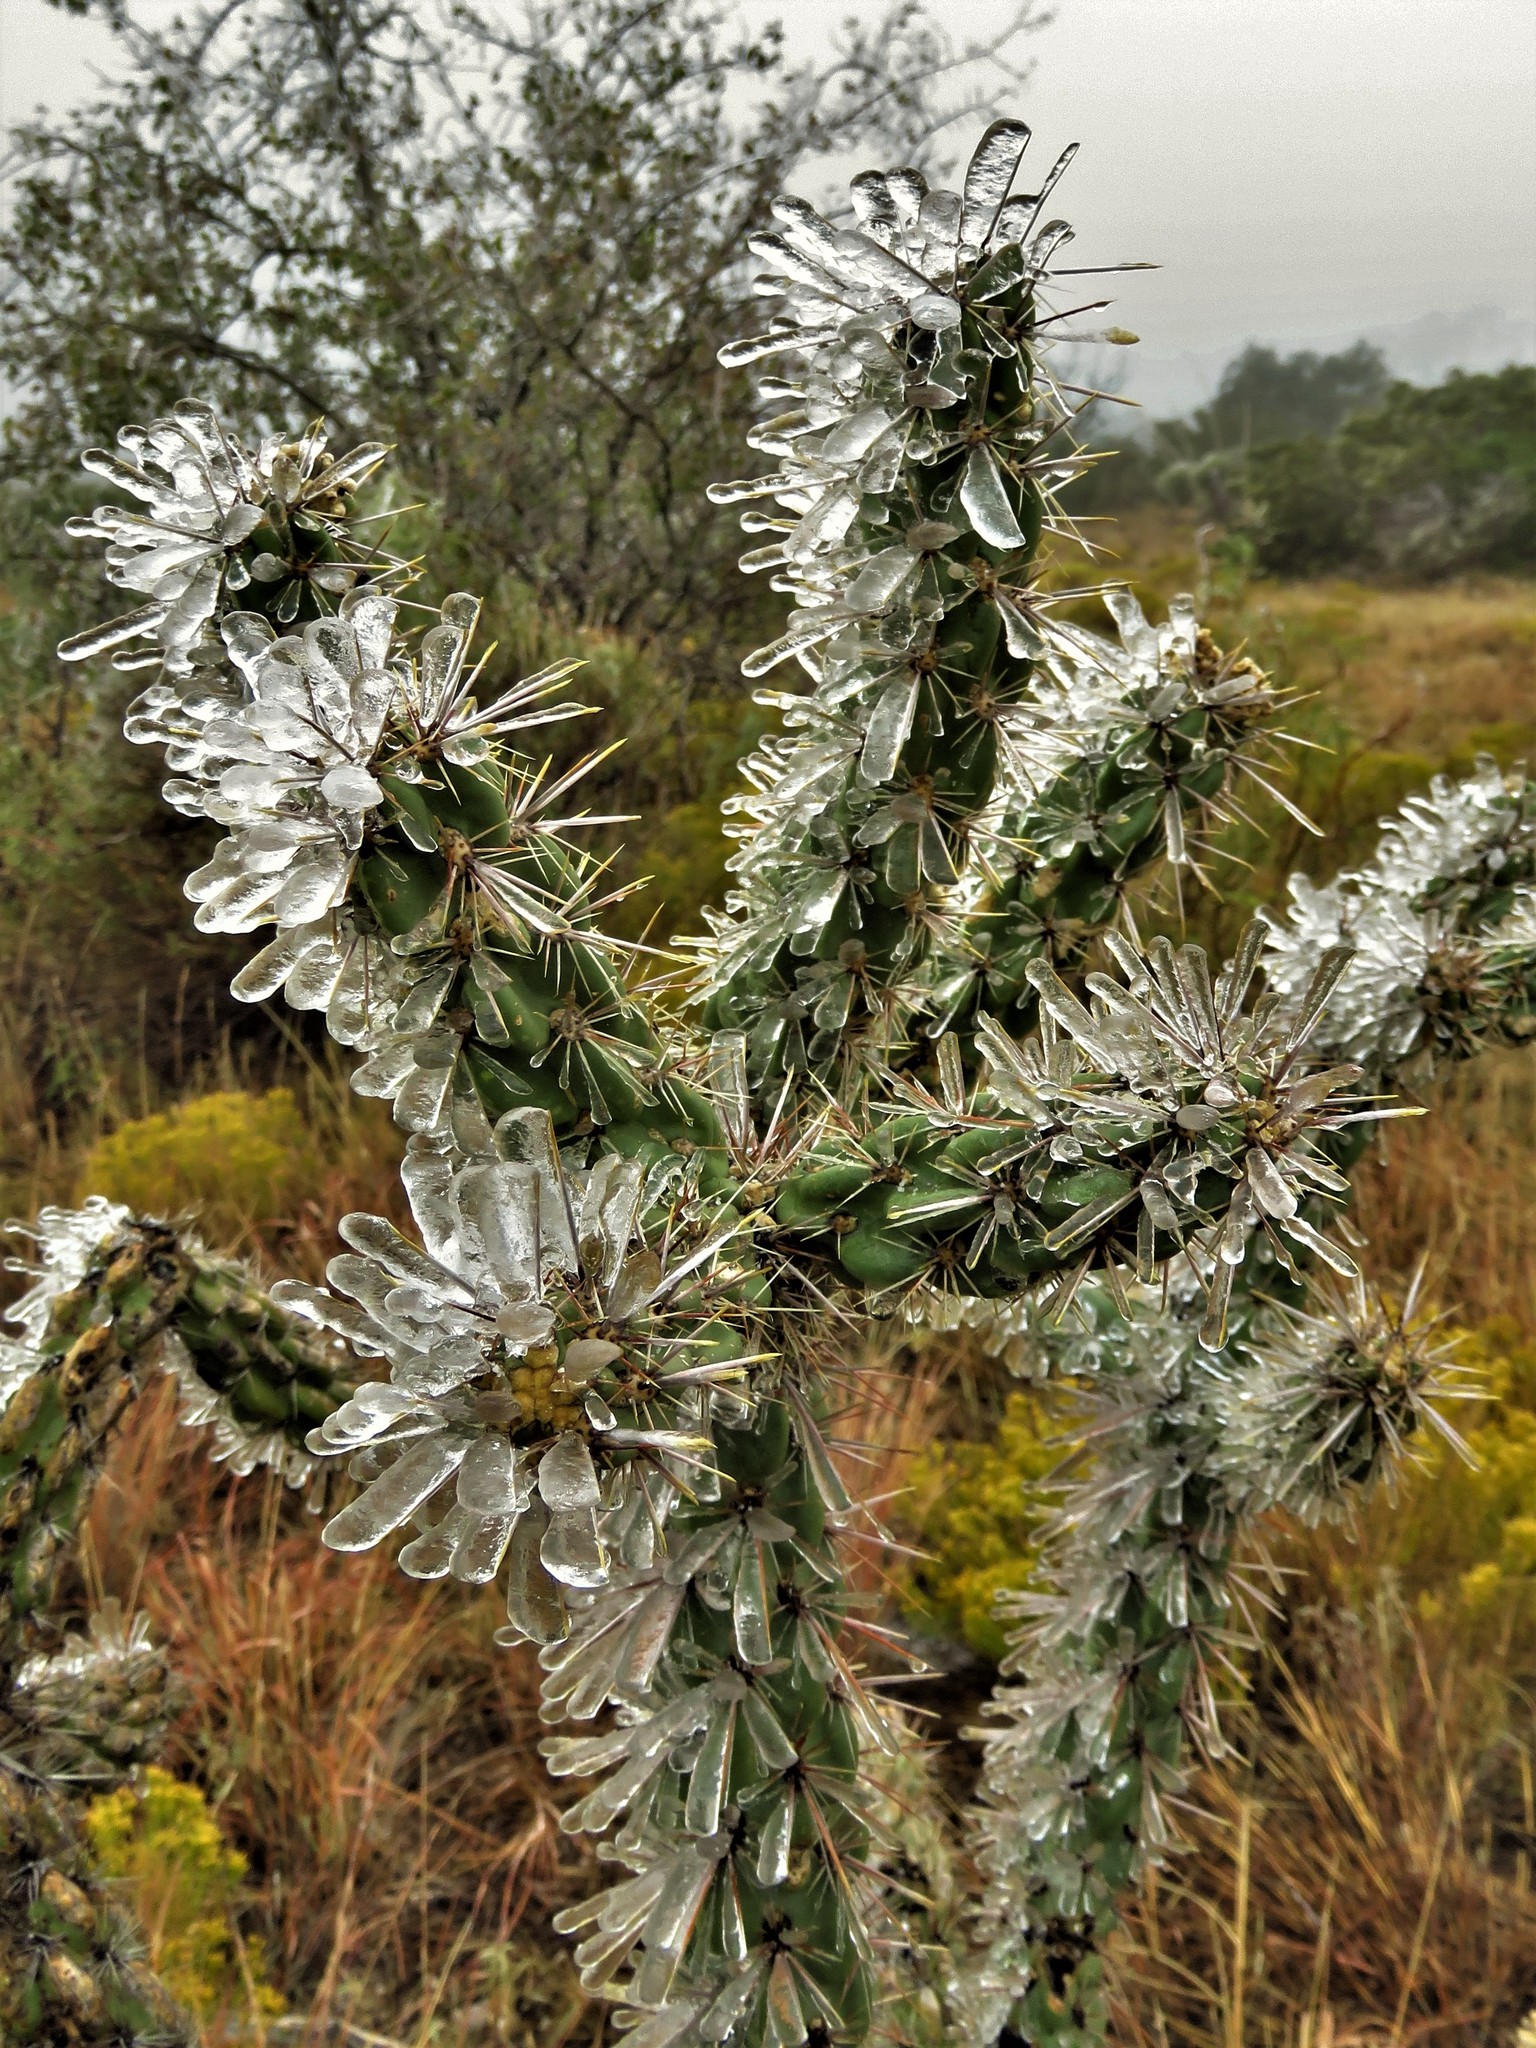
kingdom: Plantae
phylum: Tracheophyta
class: Magnoliopsida
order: Caryophyllales
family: Cactaceae
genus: Cylindropuntia
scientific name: Cylindropuntia imbricata
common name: Candelabrum cactus
